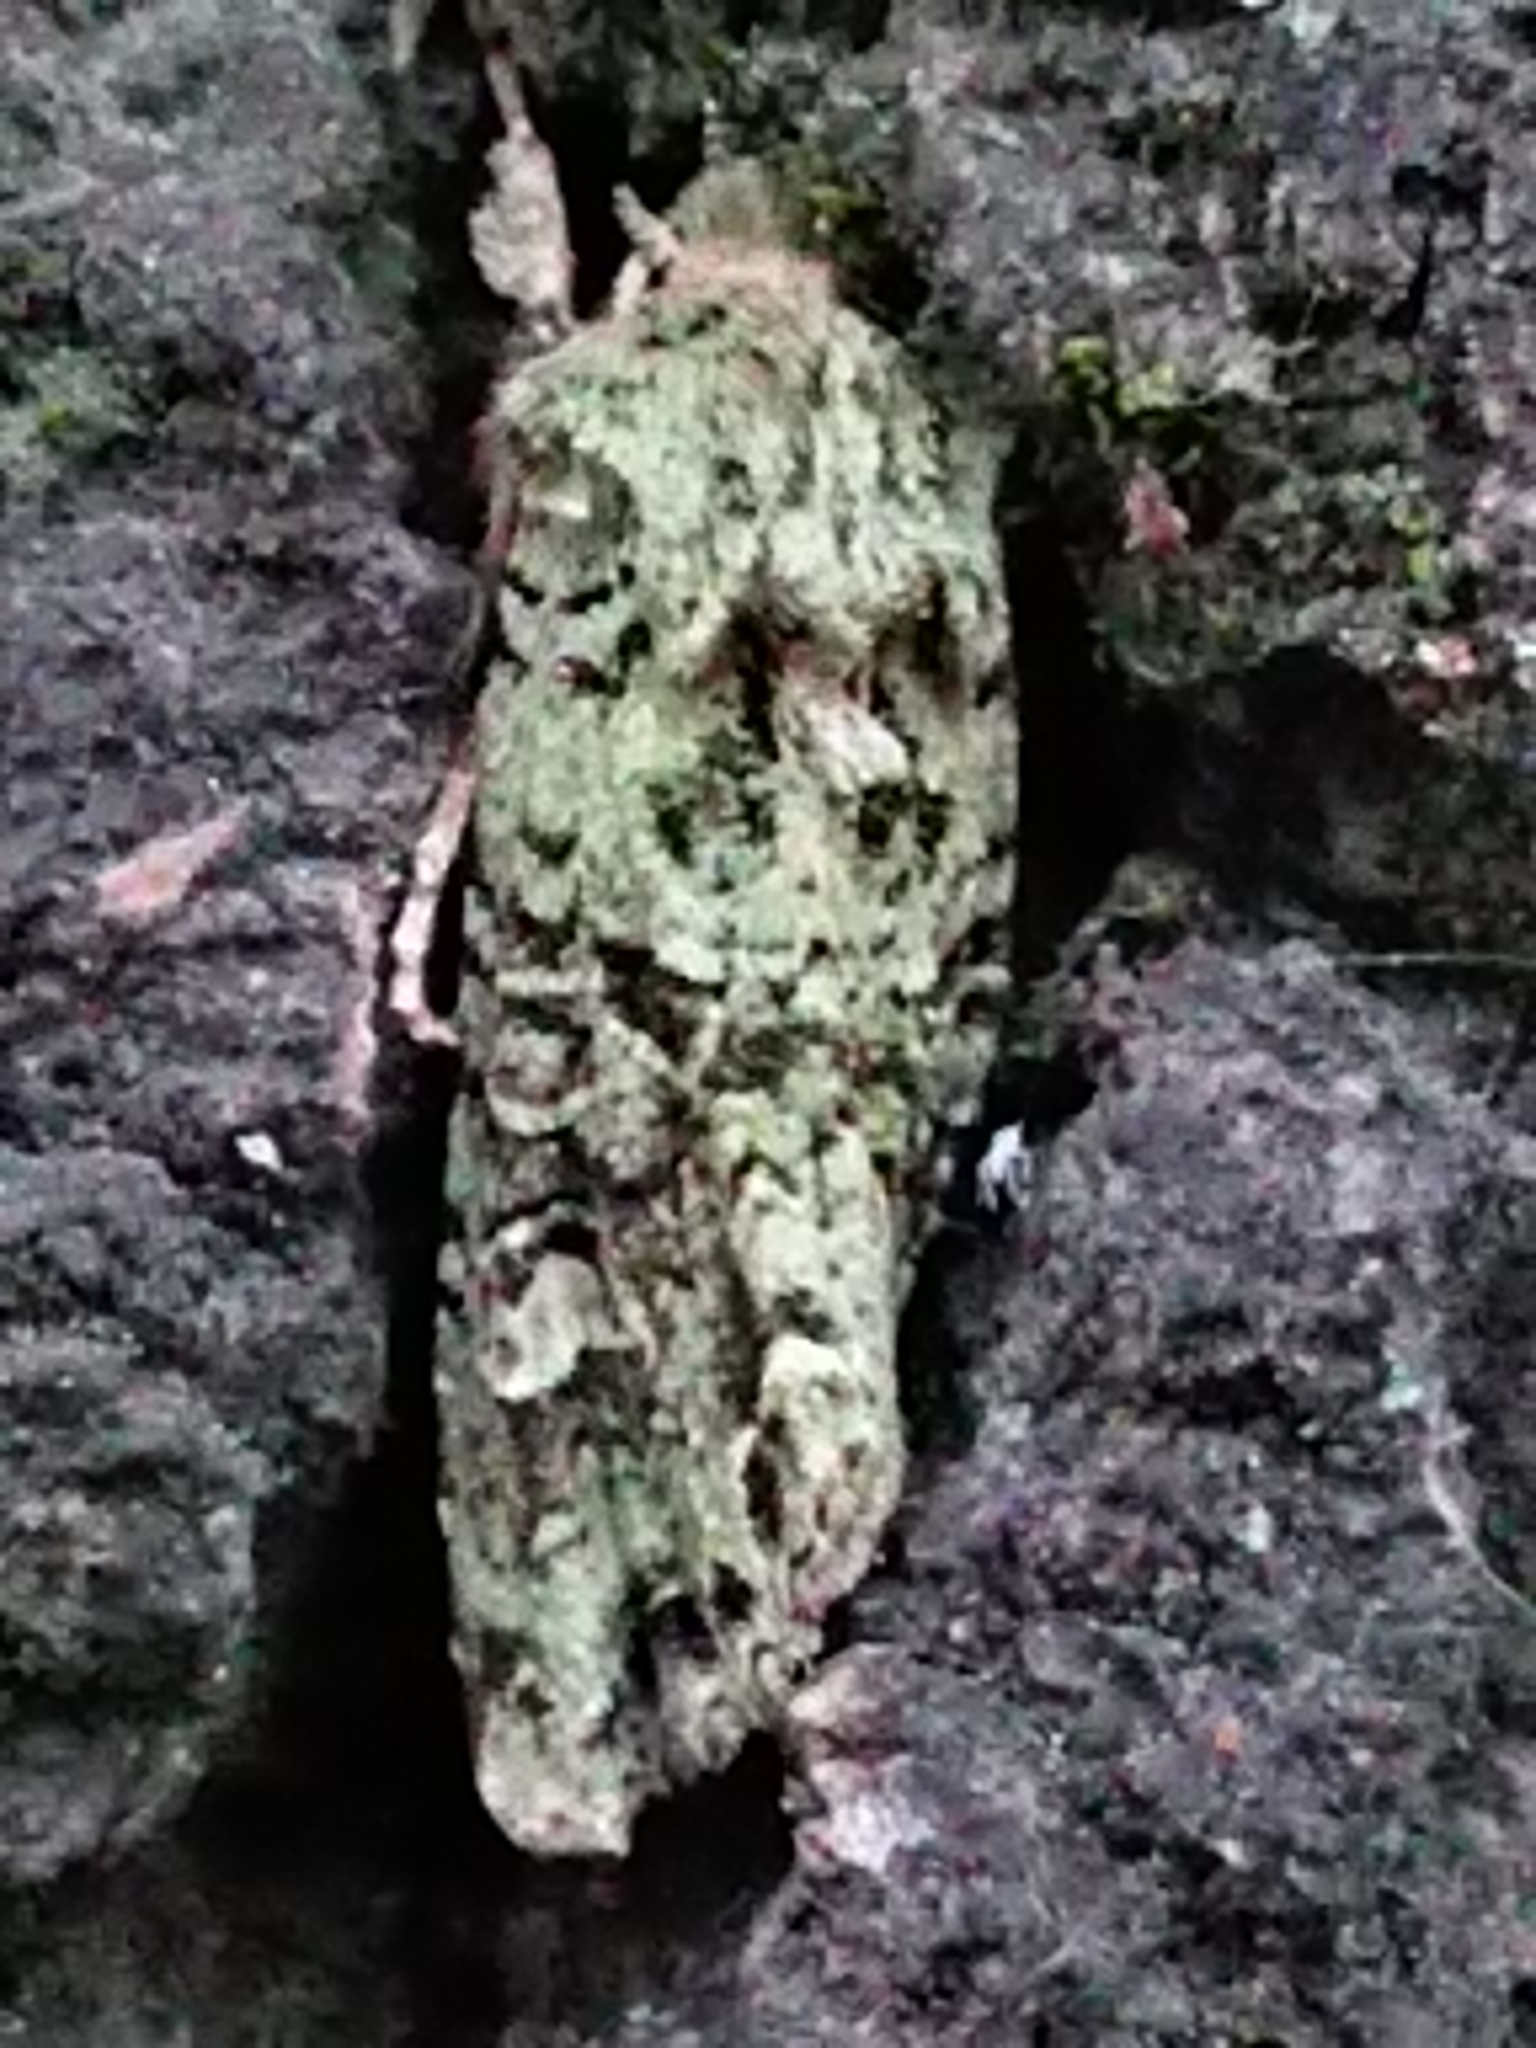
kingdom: Animalia
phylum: Arthropoda
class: Insecta
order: Lepidoptera
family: Noctuidae
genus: Ichneutica
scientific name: Ichneutica
